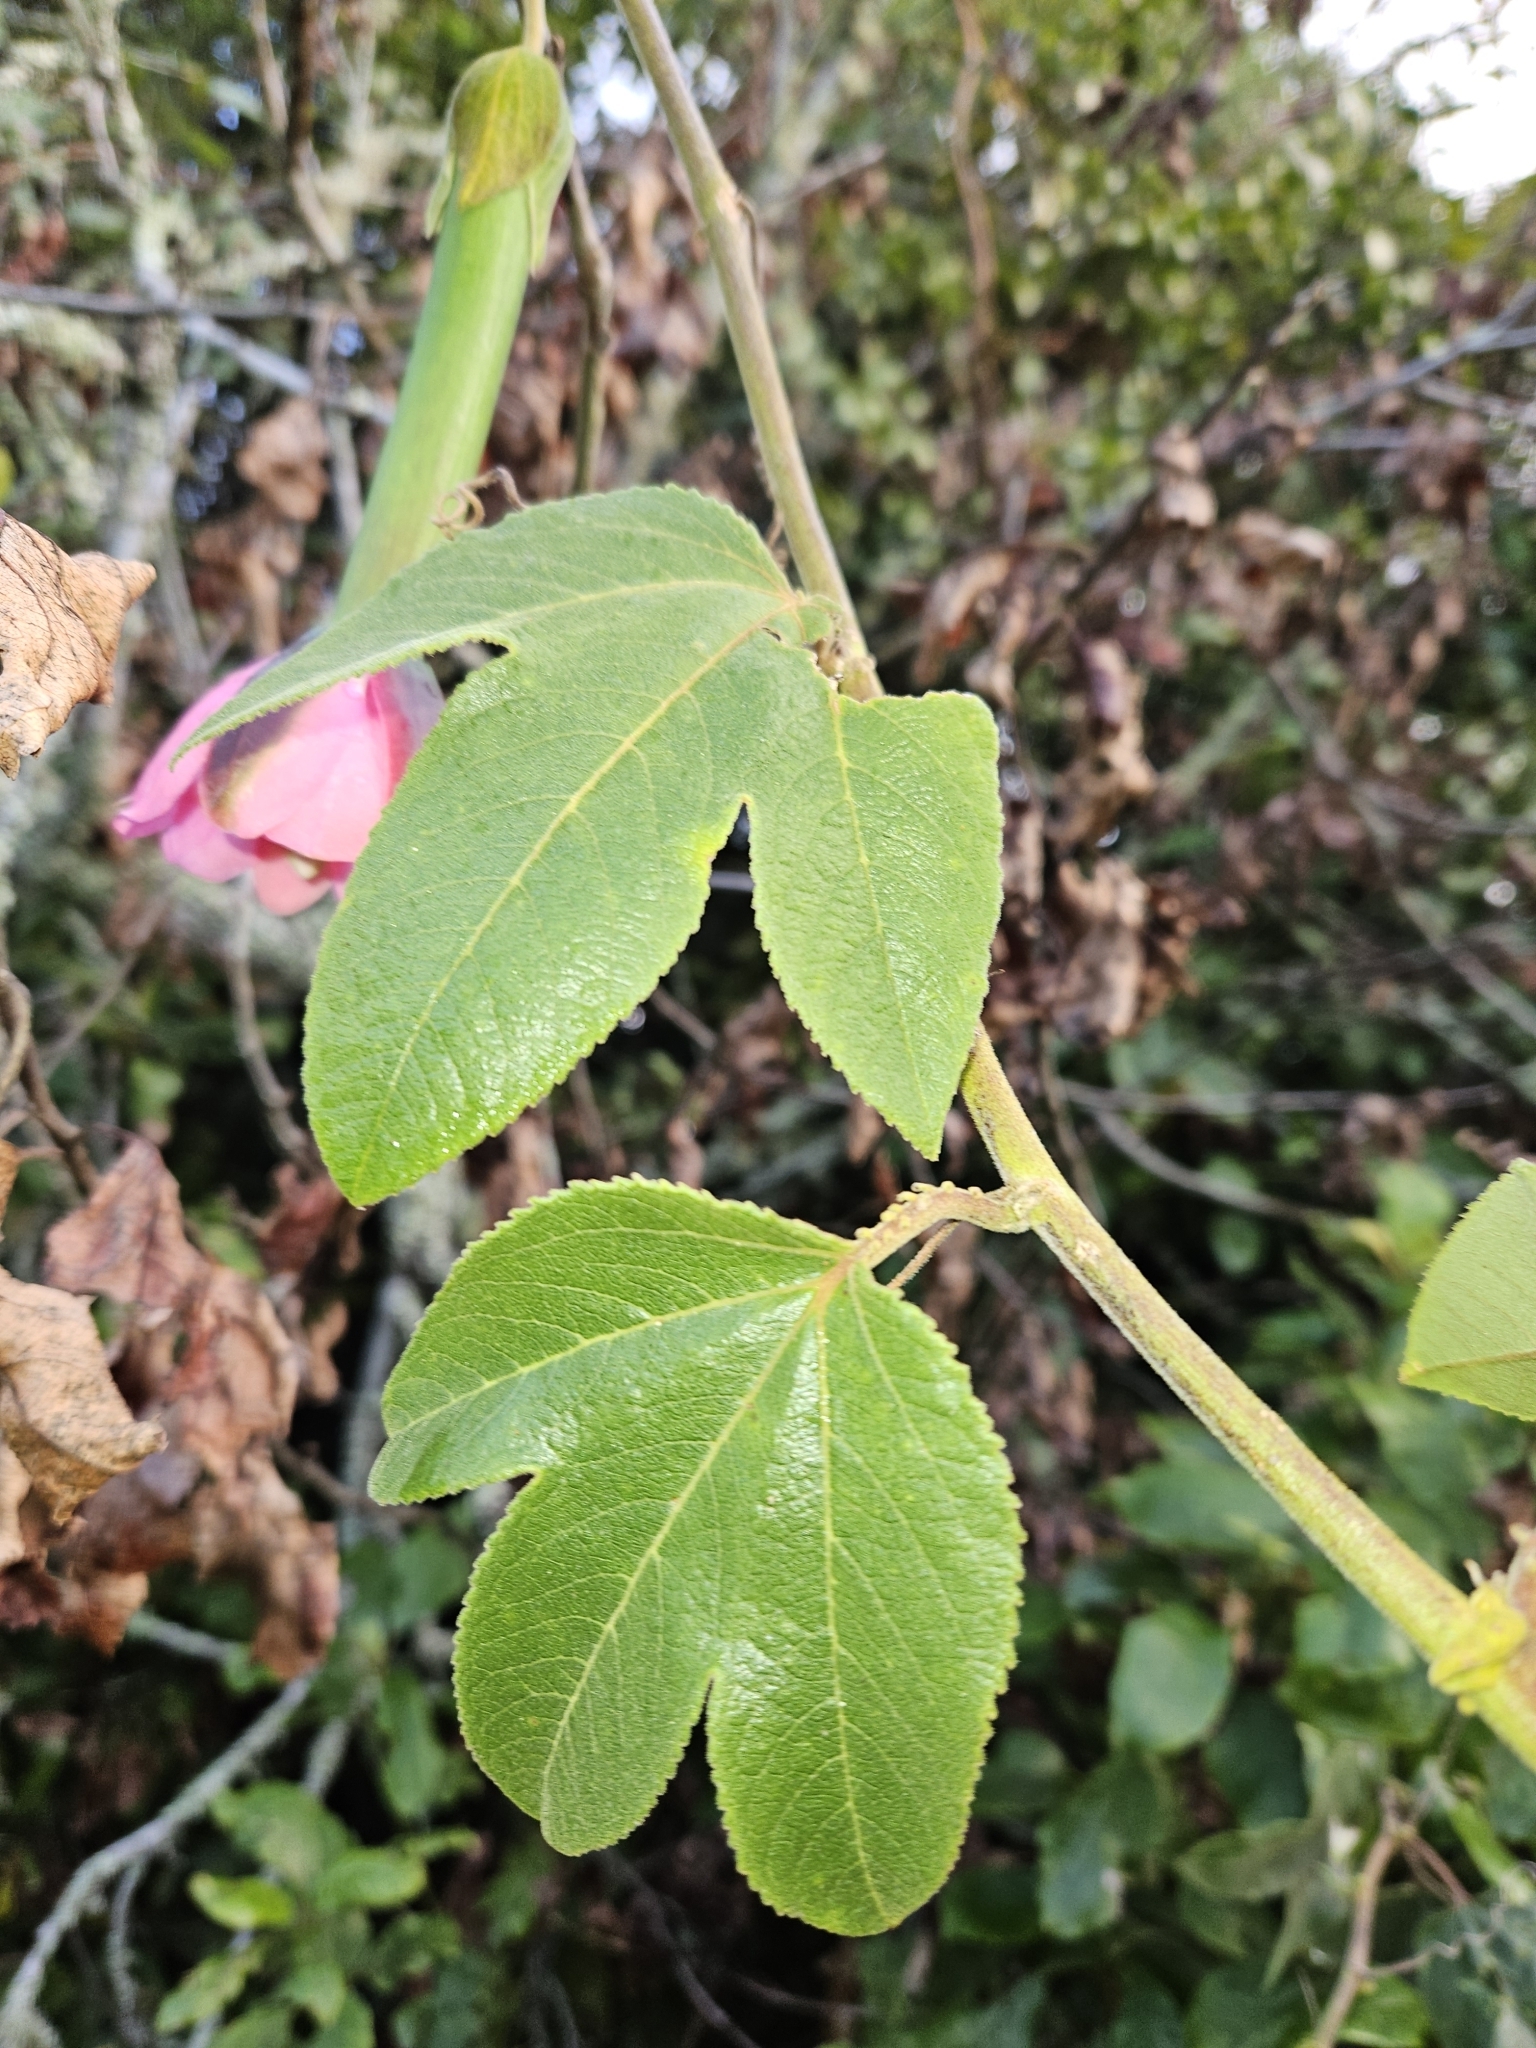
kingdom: Plantae
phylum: Tracheophyta
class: Magnoliopsida
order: Malpighiales
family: Passifloraceae
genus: Passiflora
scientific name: Passiflora tripartita
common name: Banana poka
